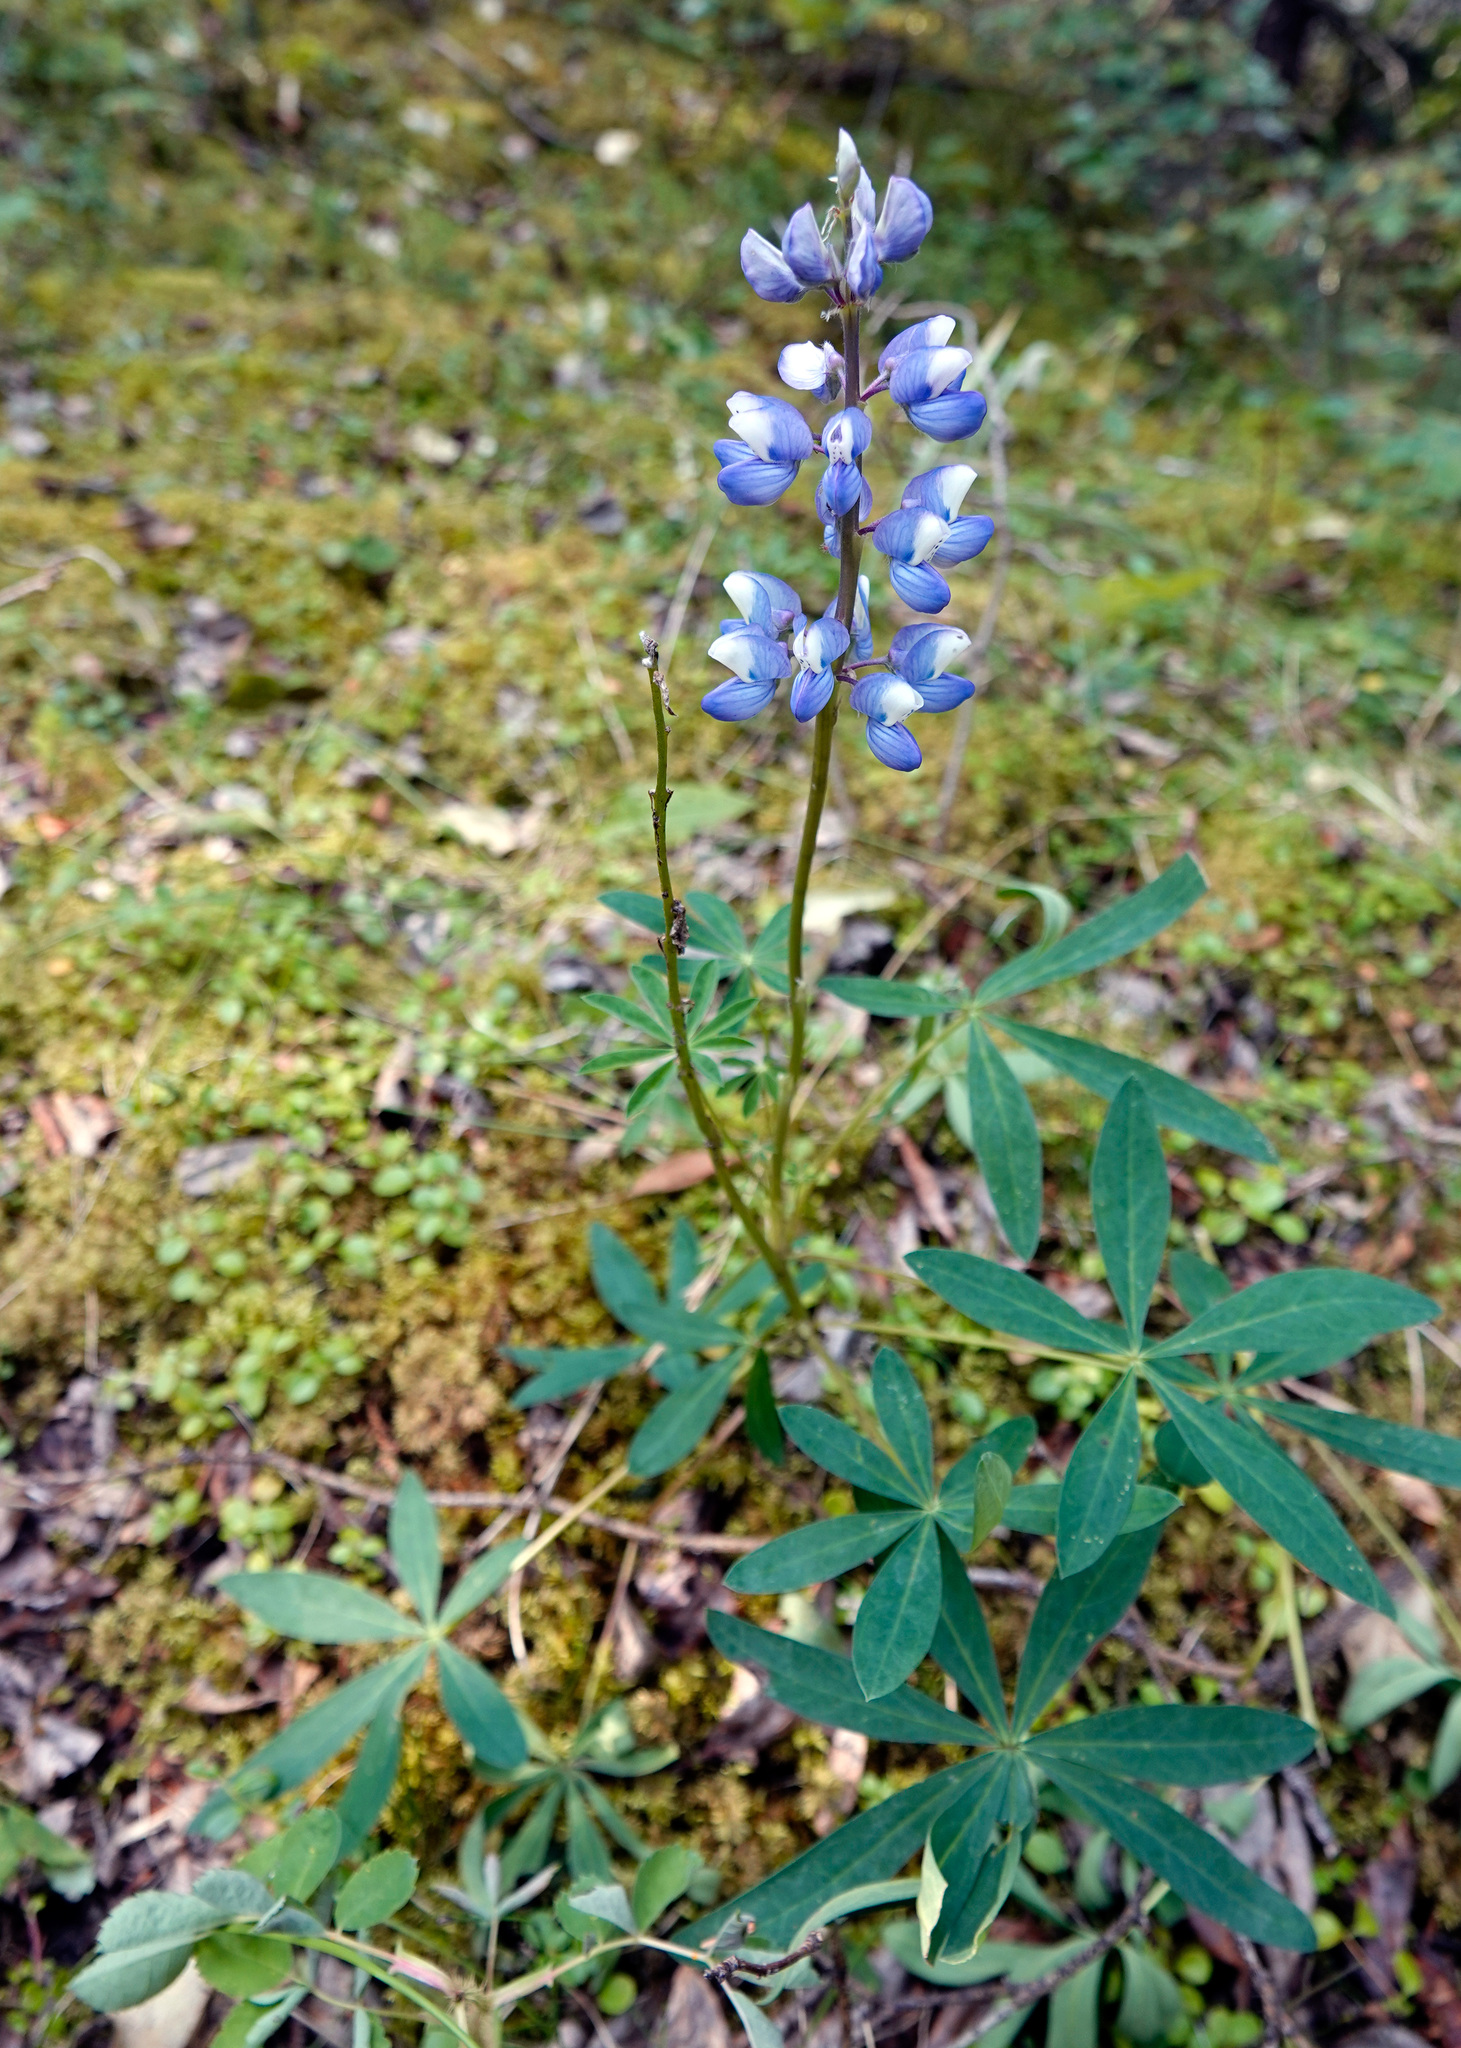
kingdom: Plantae
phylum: Tracheophyta
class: Magnoliopsida
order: Fabales
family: Fabaceae
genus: Lupinus
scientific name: Lupinus arcticus
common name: Arctic lupine
